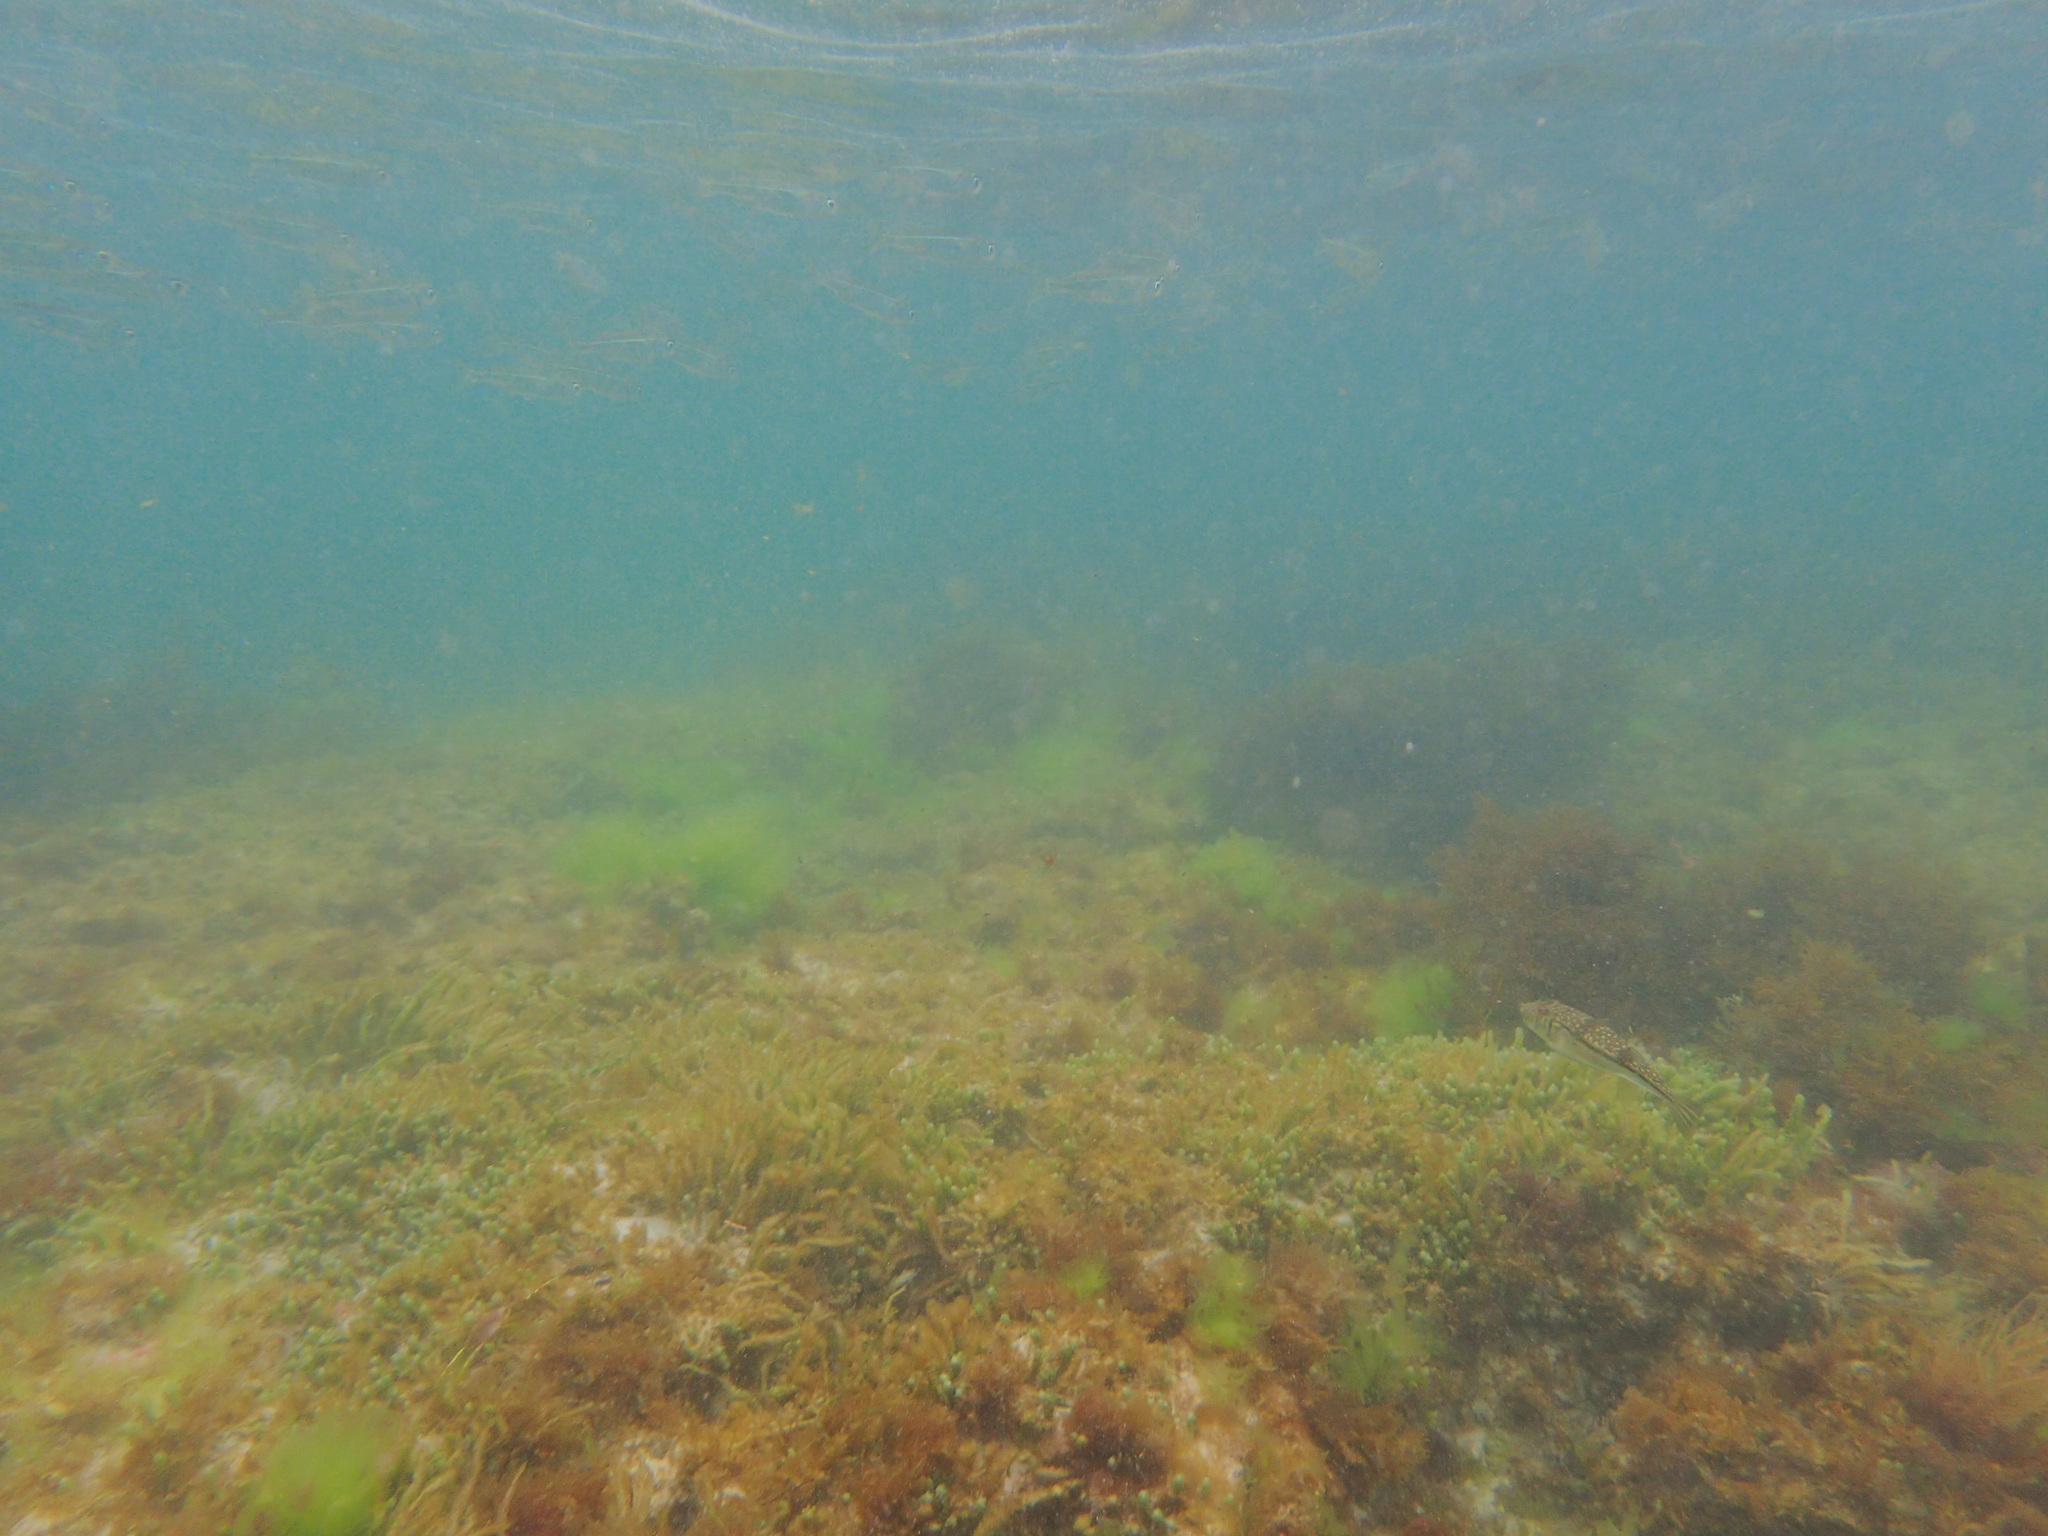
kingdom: Animalia
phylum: Chordata
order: Tetraodontiformes
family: Tetraodontidae
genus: Torquigener
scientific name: Torquigener pleurogramma
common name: Banded toadfish
